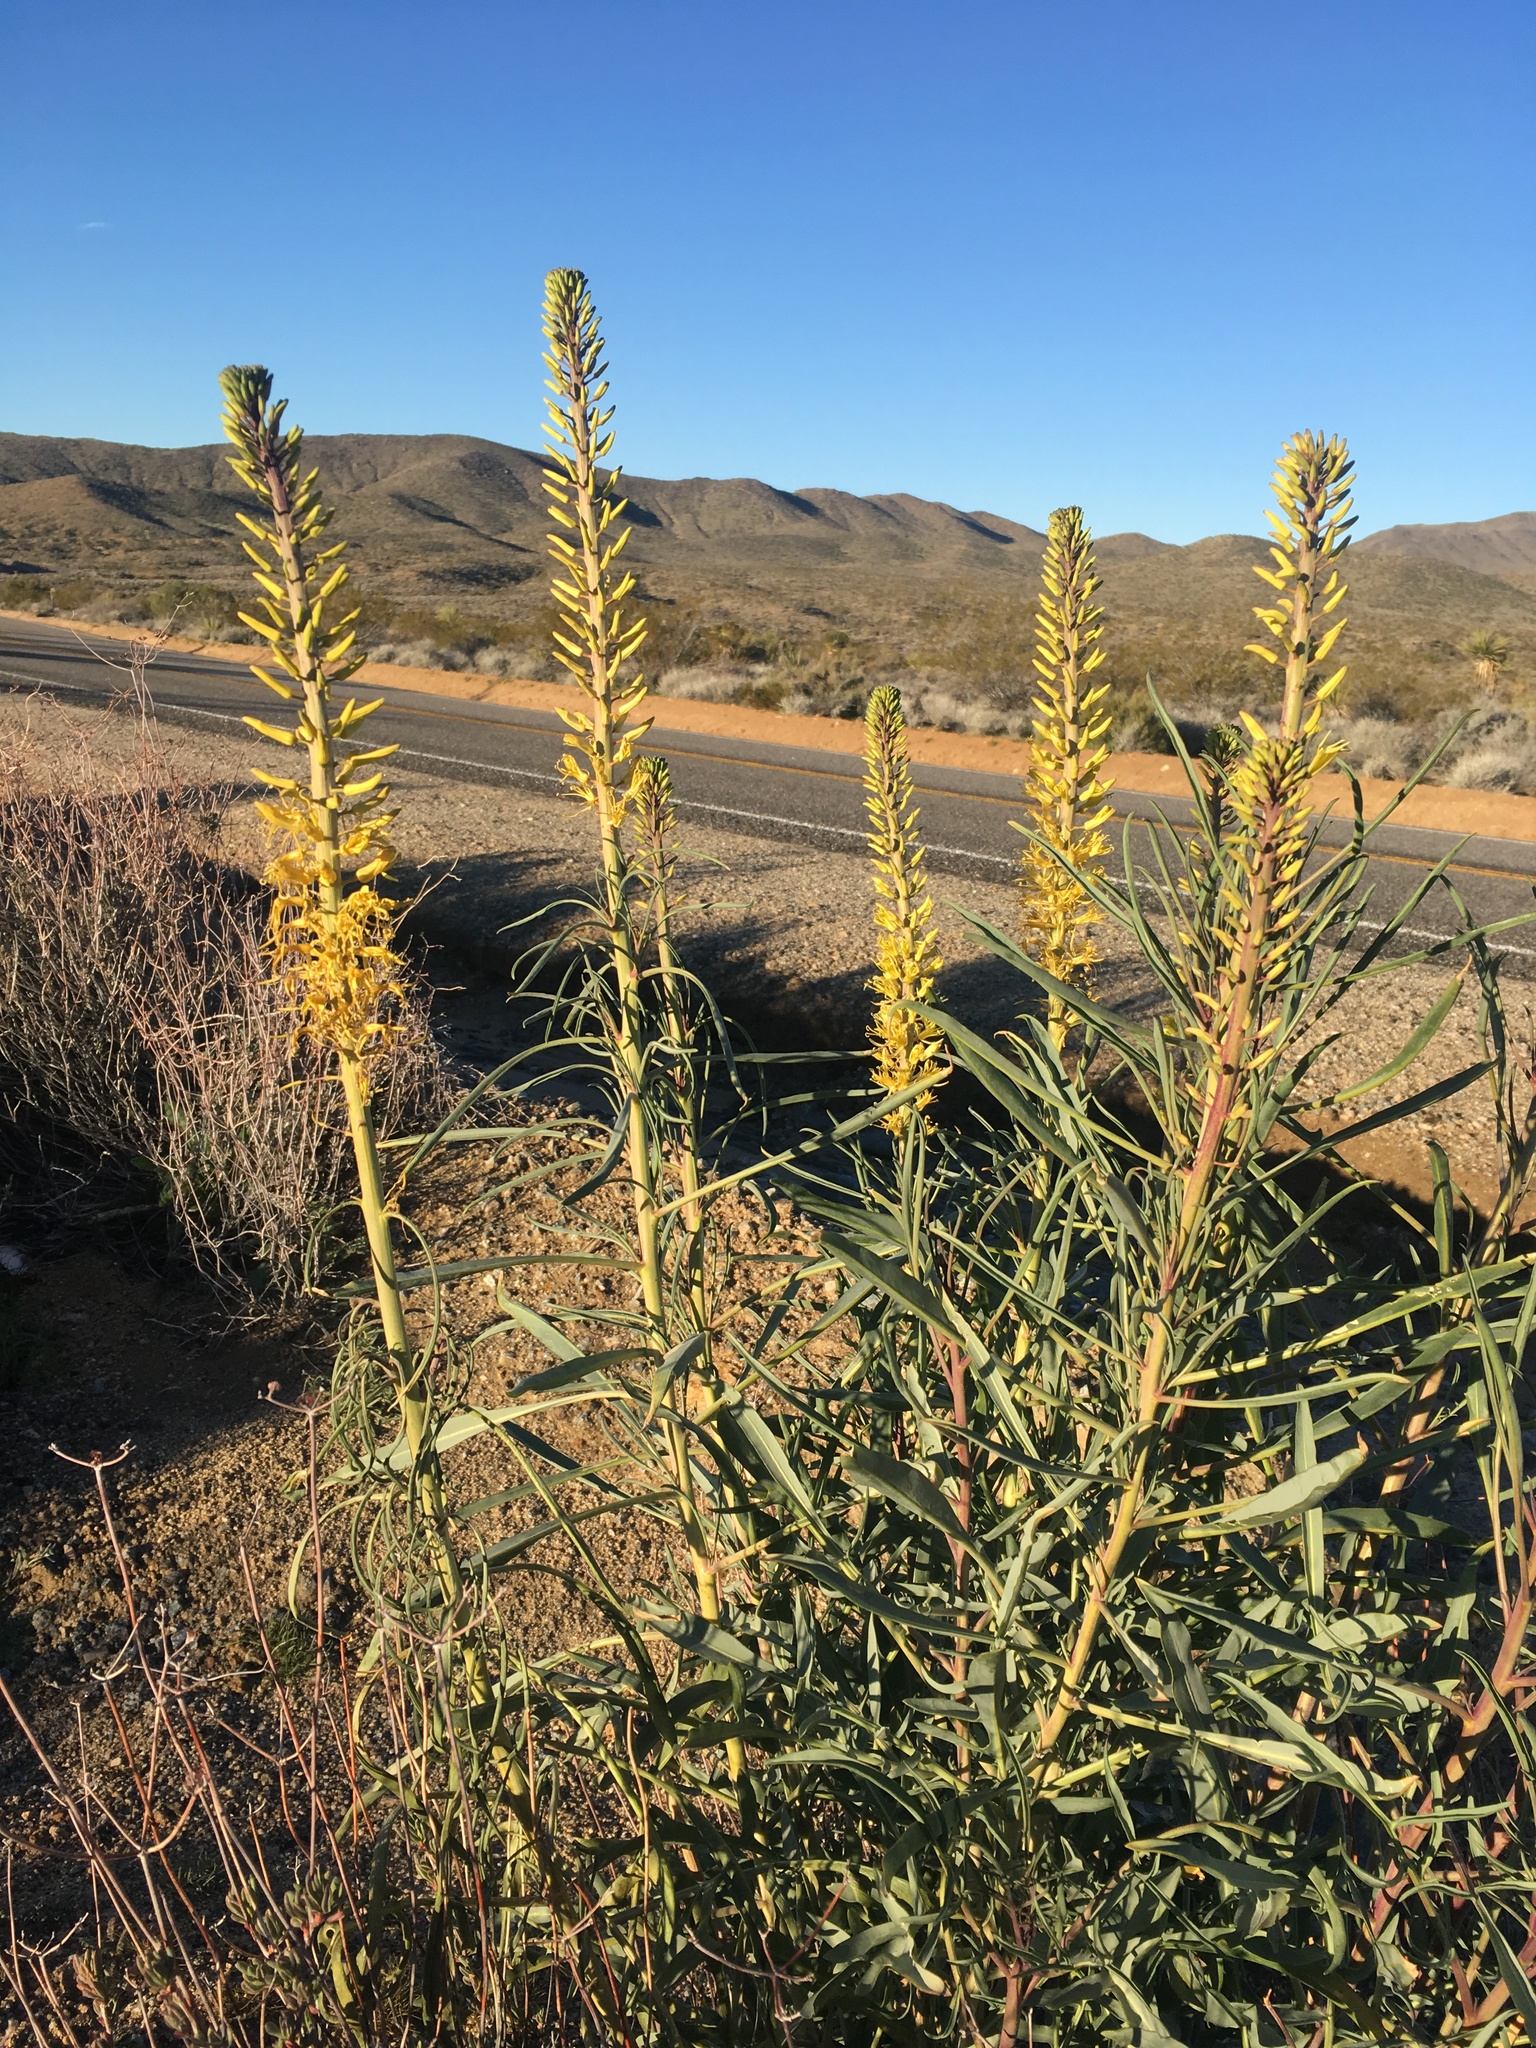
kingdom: Plantae
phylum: Tracheophyta
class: Magnoliopsida
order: Brassicales
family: Brassicaceae
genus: Stanleya
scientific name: Stanleya pinnata
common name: Prince's-plume
